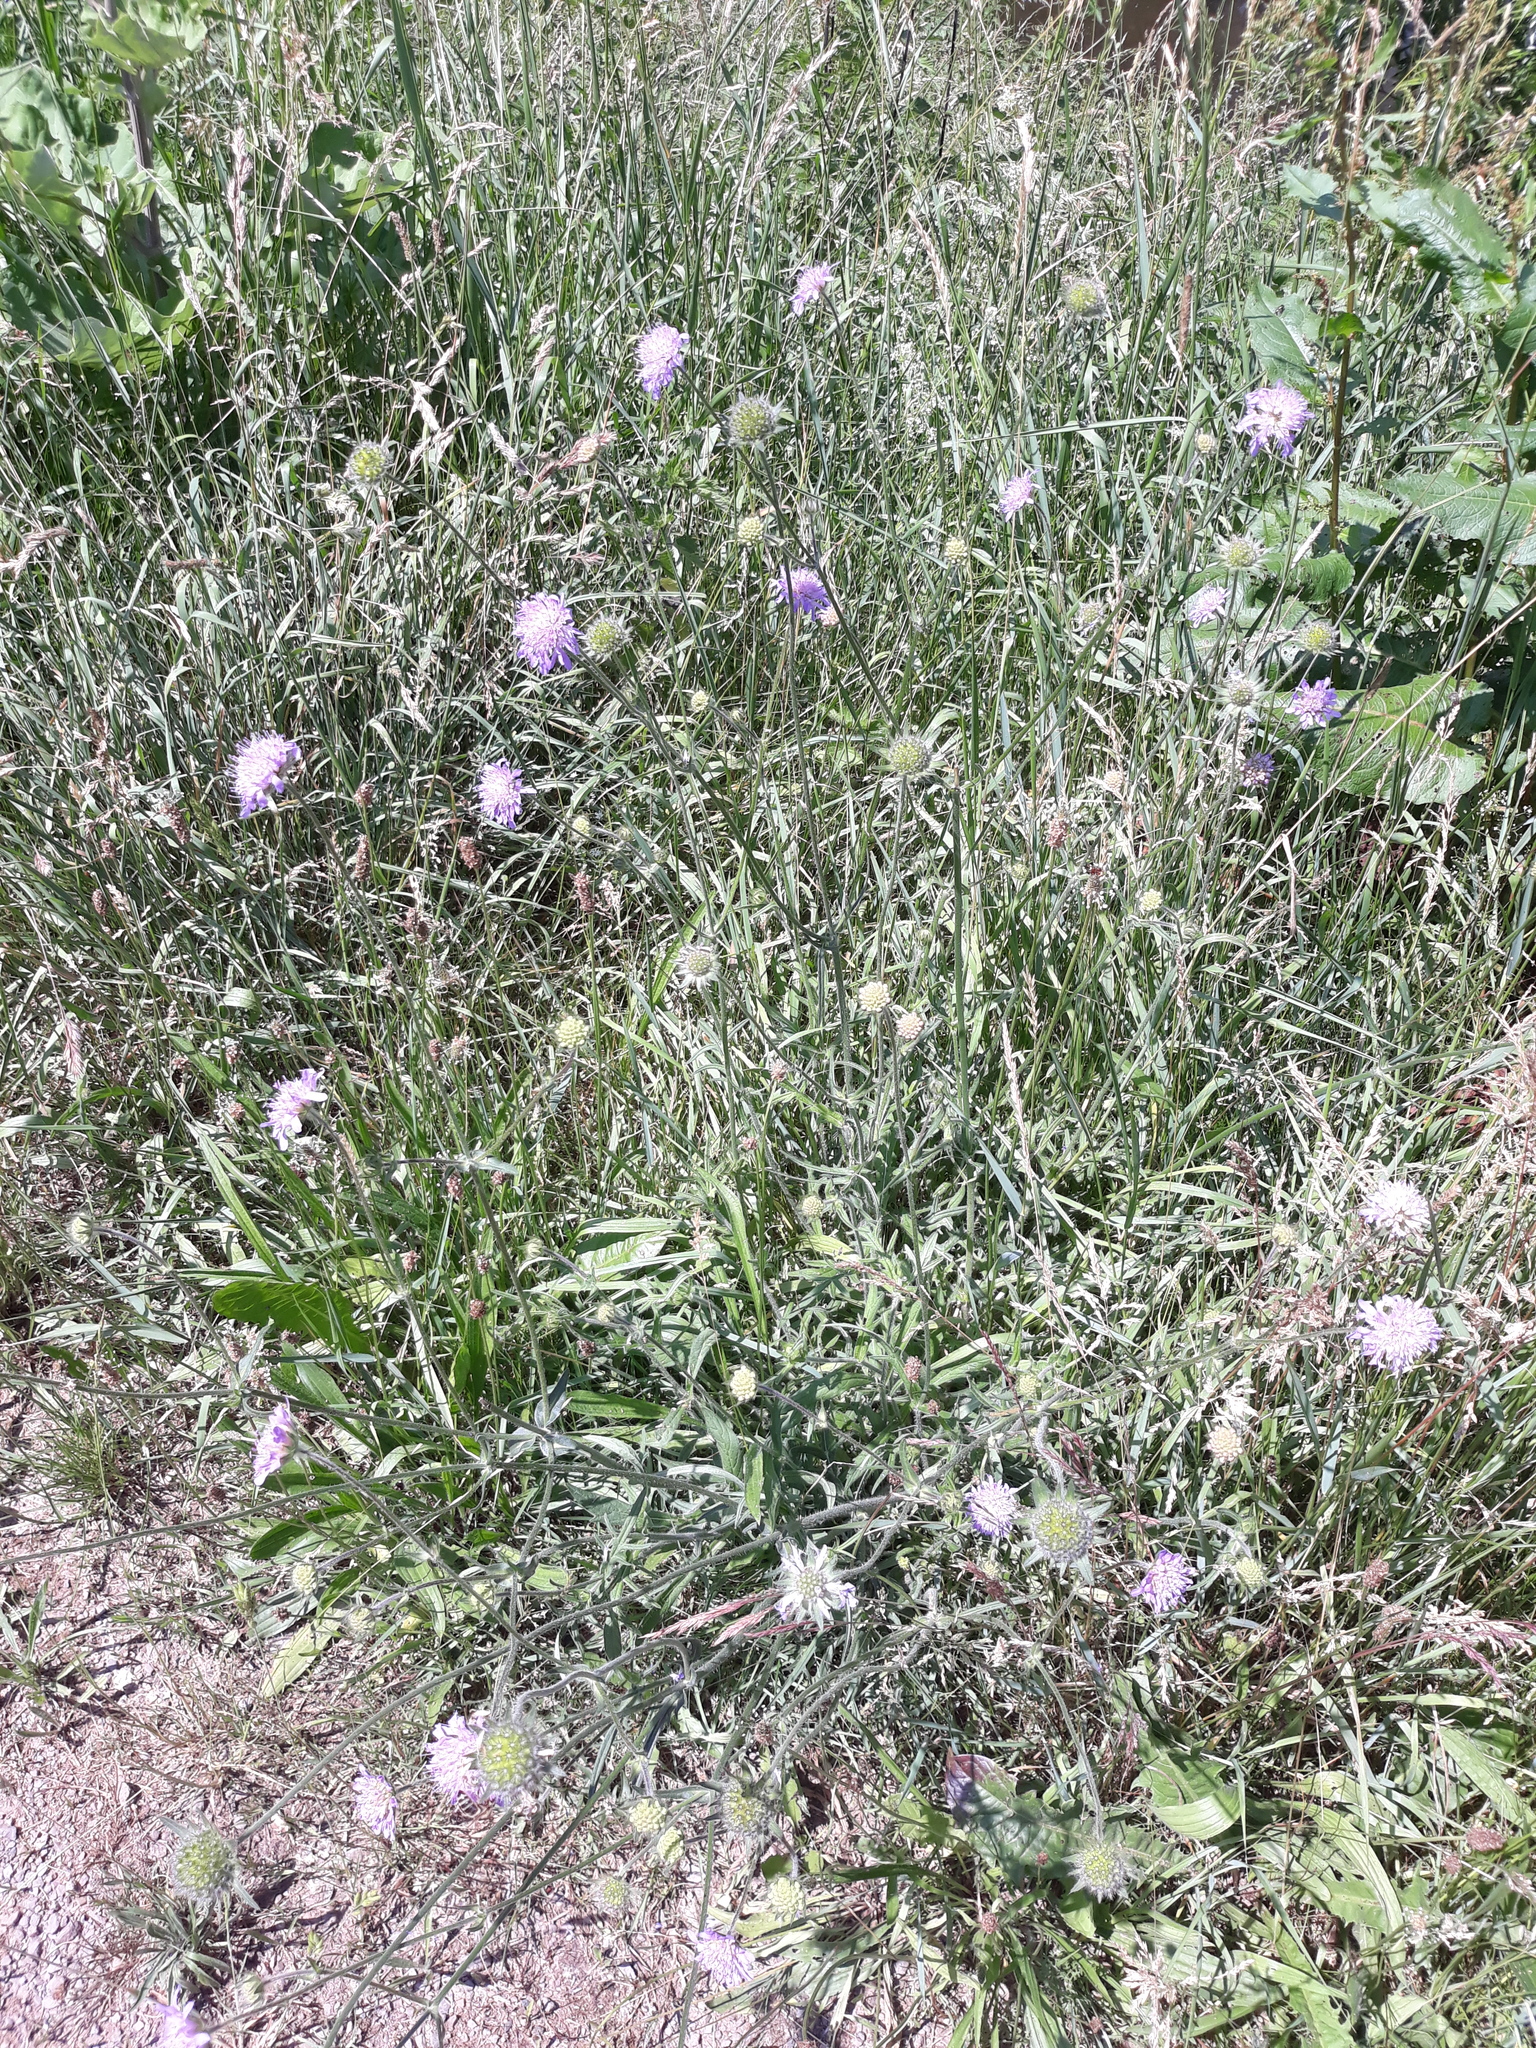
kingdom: Plantae
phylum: Tracheophyta
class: Magnoliopsida
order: Dipsacales
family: Caprifoliaceae
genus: Knautia
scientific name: Knautia arvensis
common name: Field scabiosa
